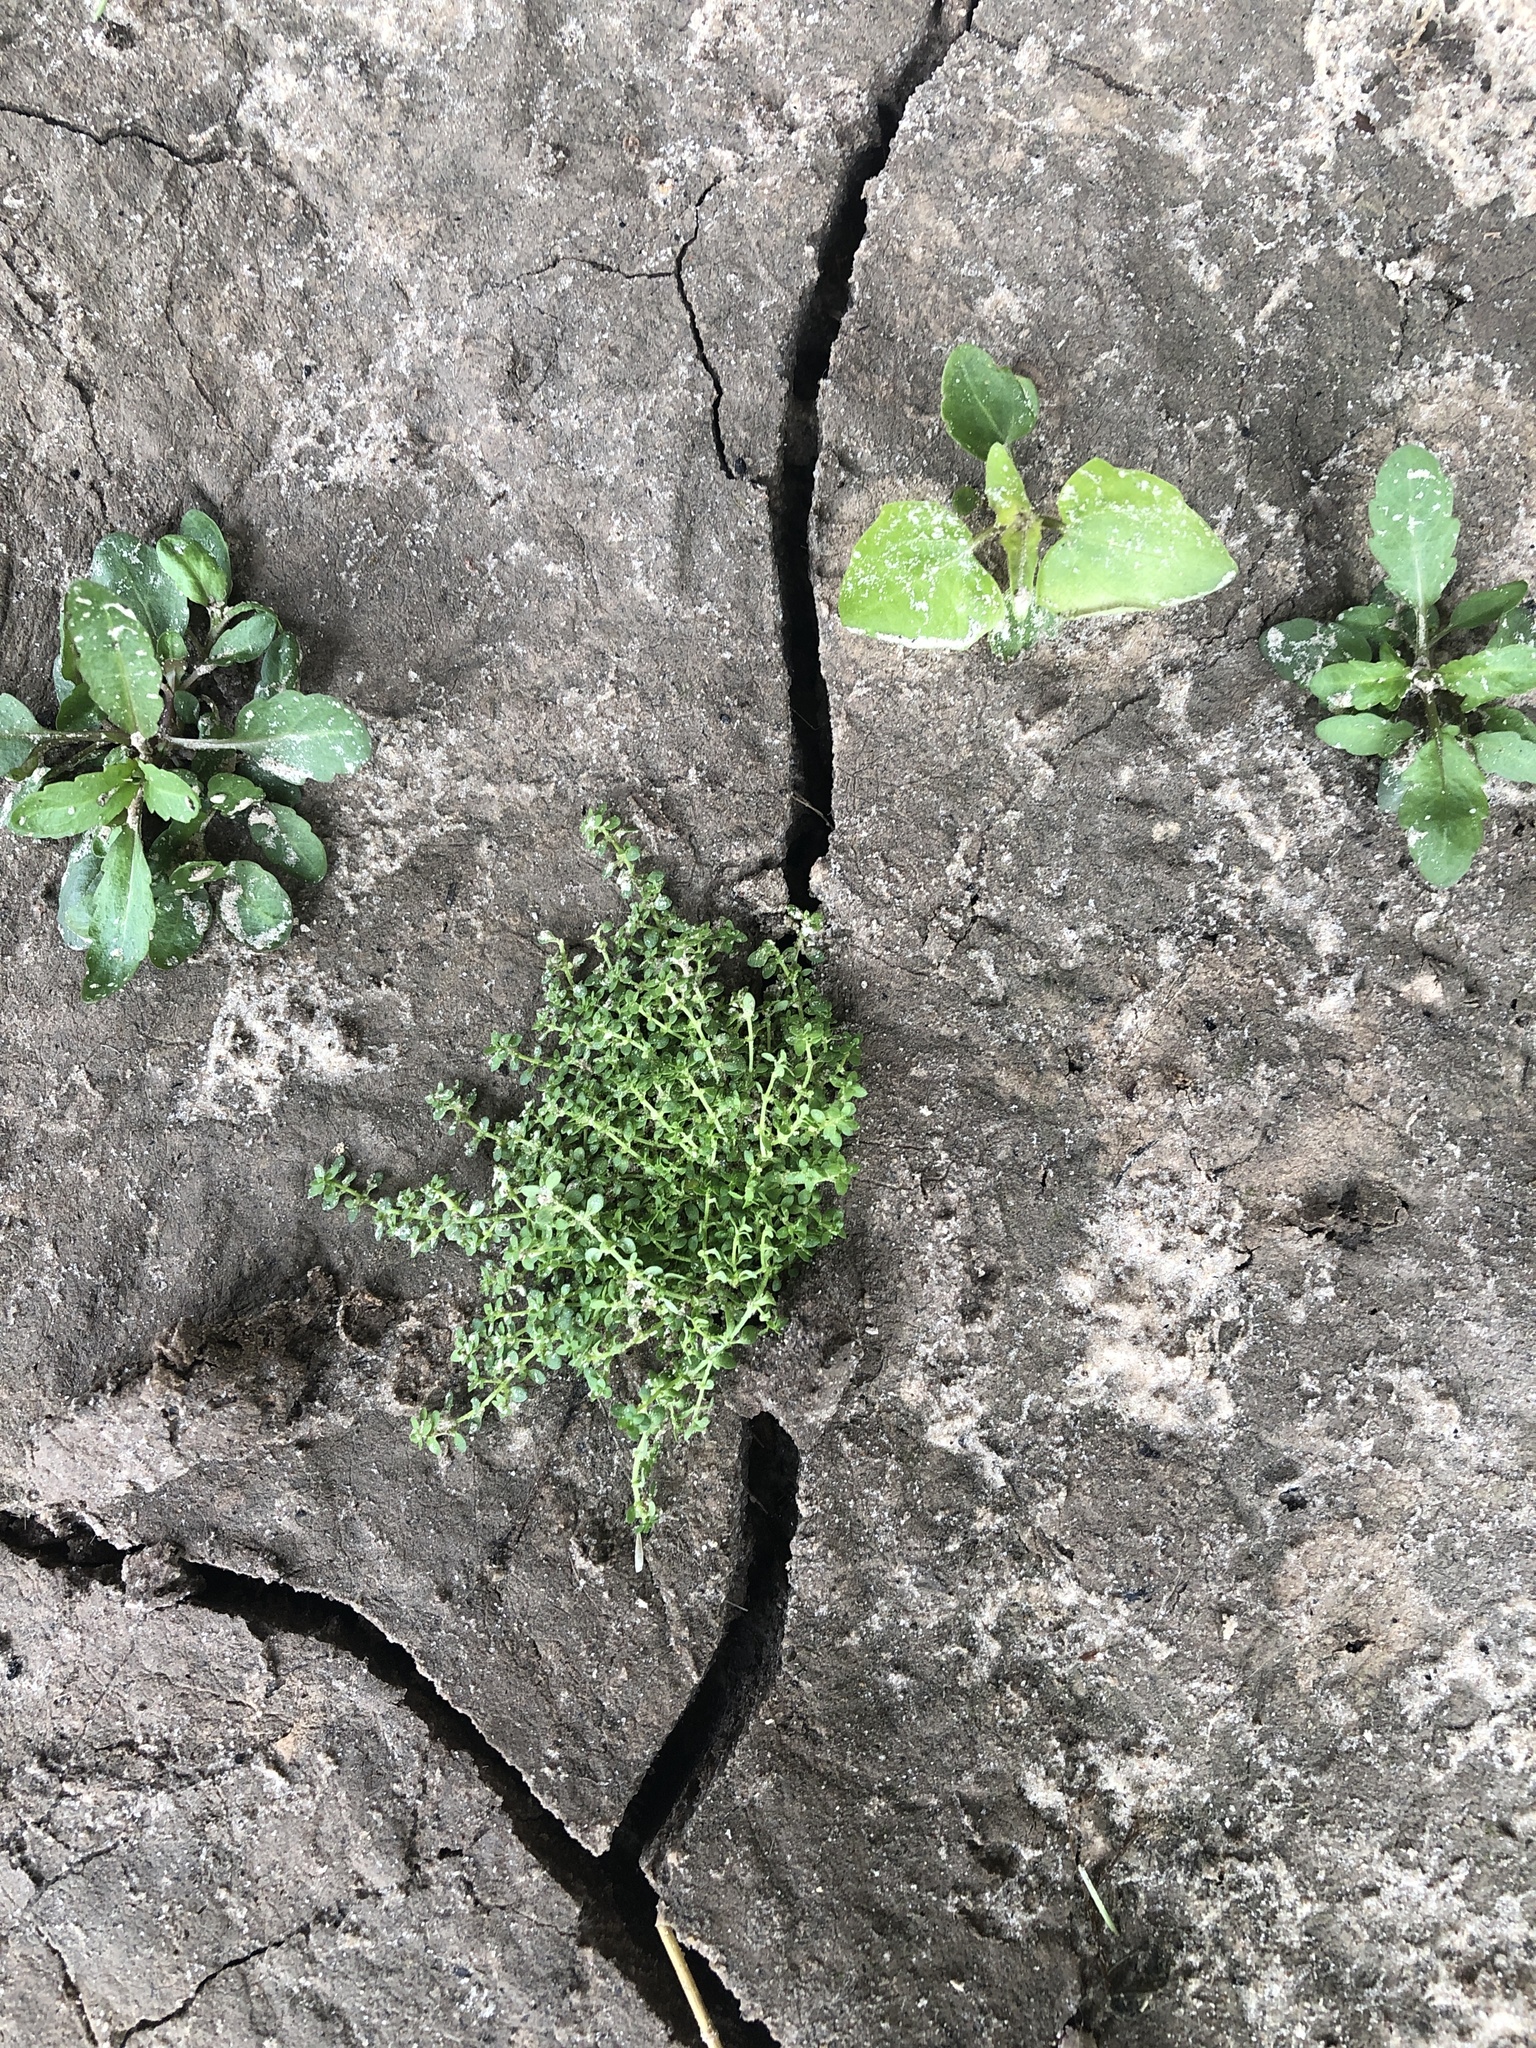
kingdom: Plantae
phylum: Tracheophyta
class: Magnoliopsida
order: Rosales
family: Urticaceae
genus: Pilea
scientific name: Pilea microphylla
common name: Artillery-plant
